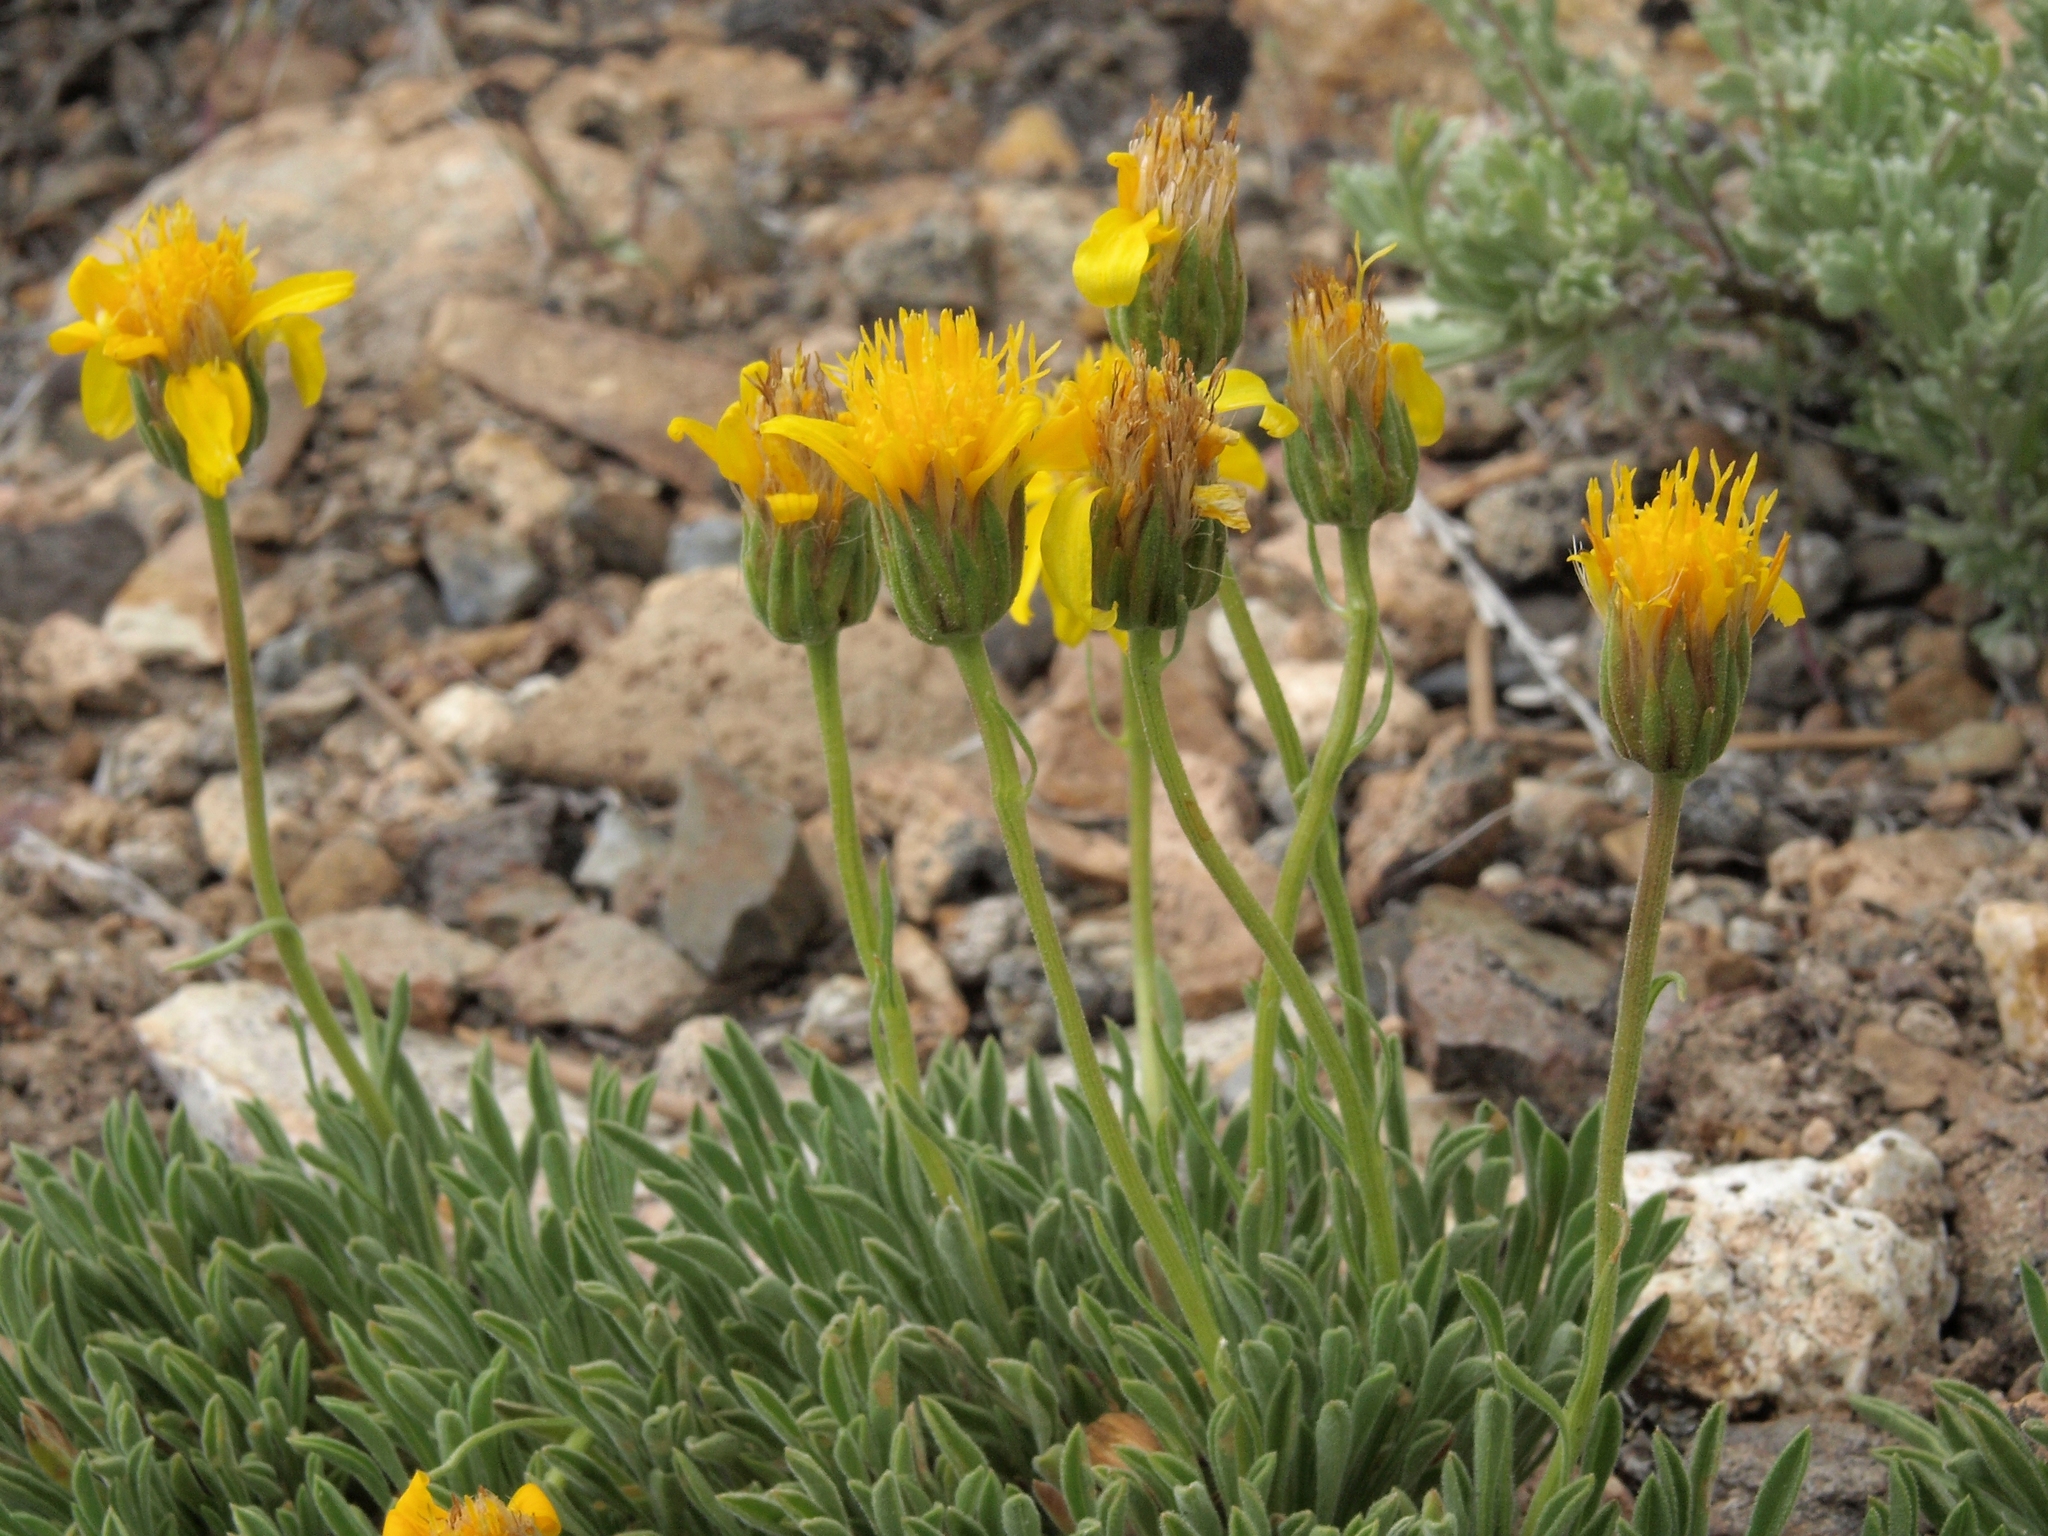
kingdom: Plantae
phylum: Tracheophyta
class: Magnoliopsida
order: Asterales
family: Asteraceae
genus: Stenotus
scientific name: Stenotus acaulis
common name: Stemless goldenweed
